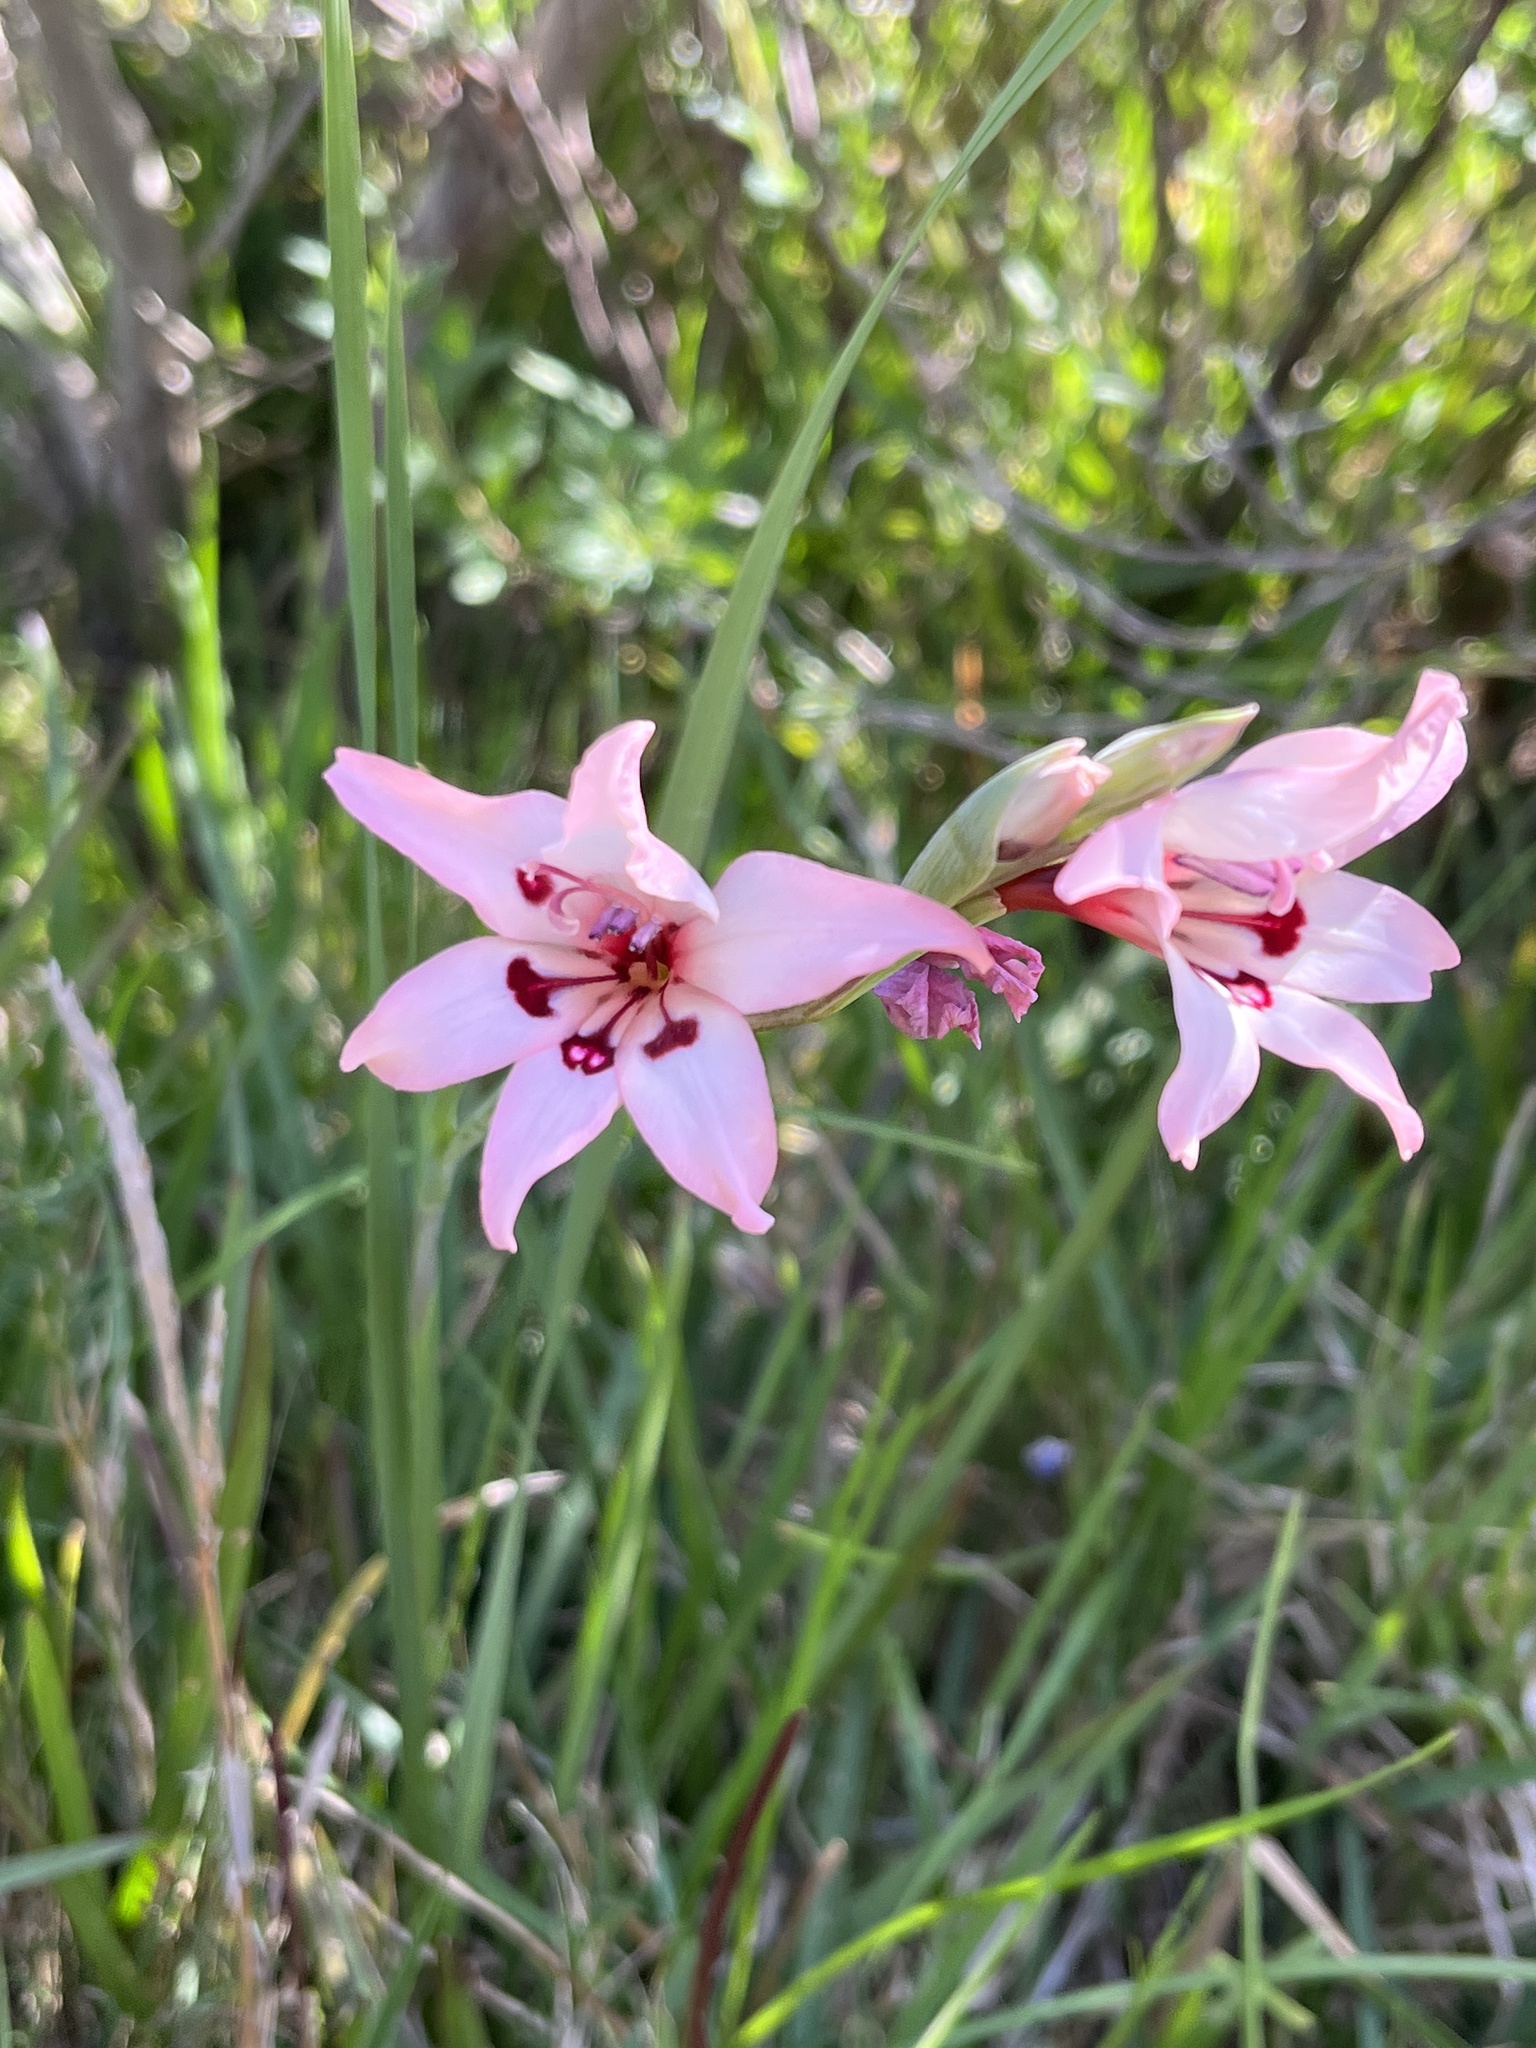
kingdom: Plantae
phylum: Tracheophyta
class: Liliopsida
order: Asparagales
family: Iridaceae
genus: Gladiolus
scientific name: Gladiolus carneus
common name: Painted-lady
